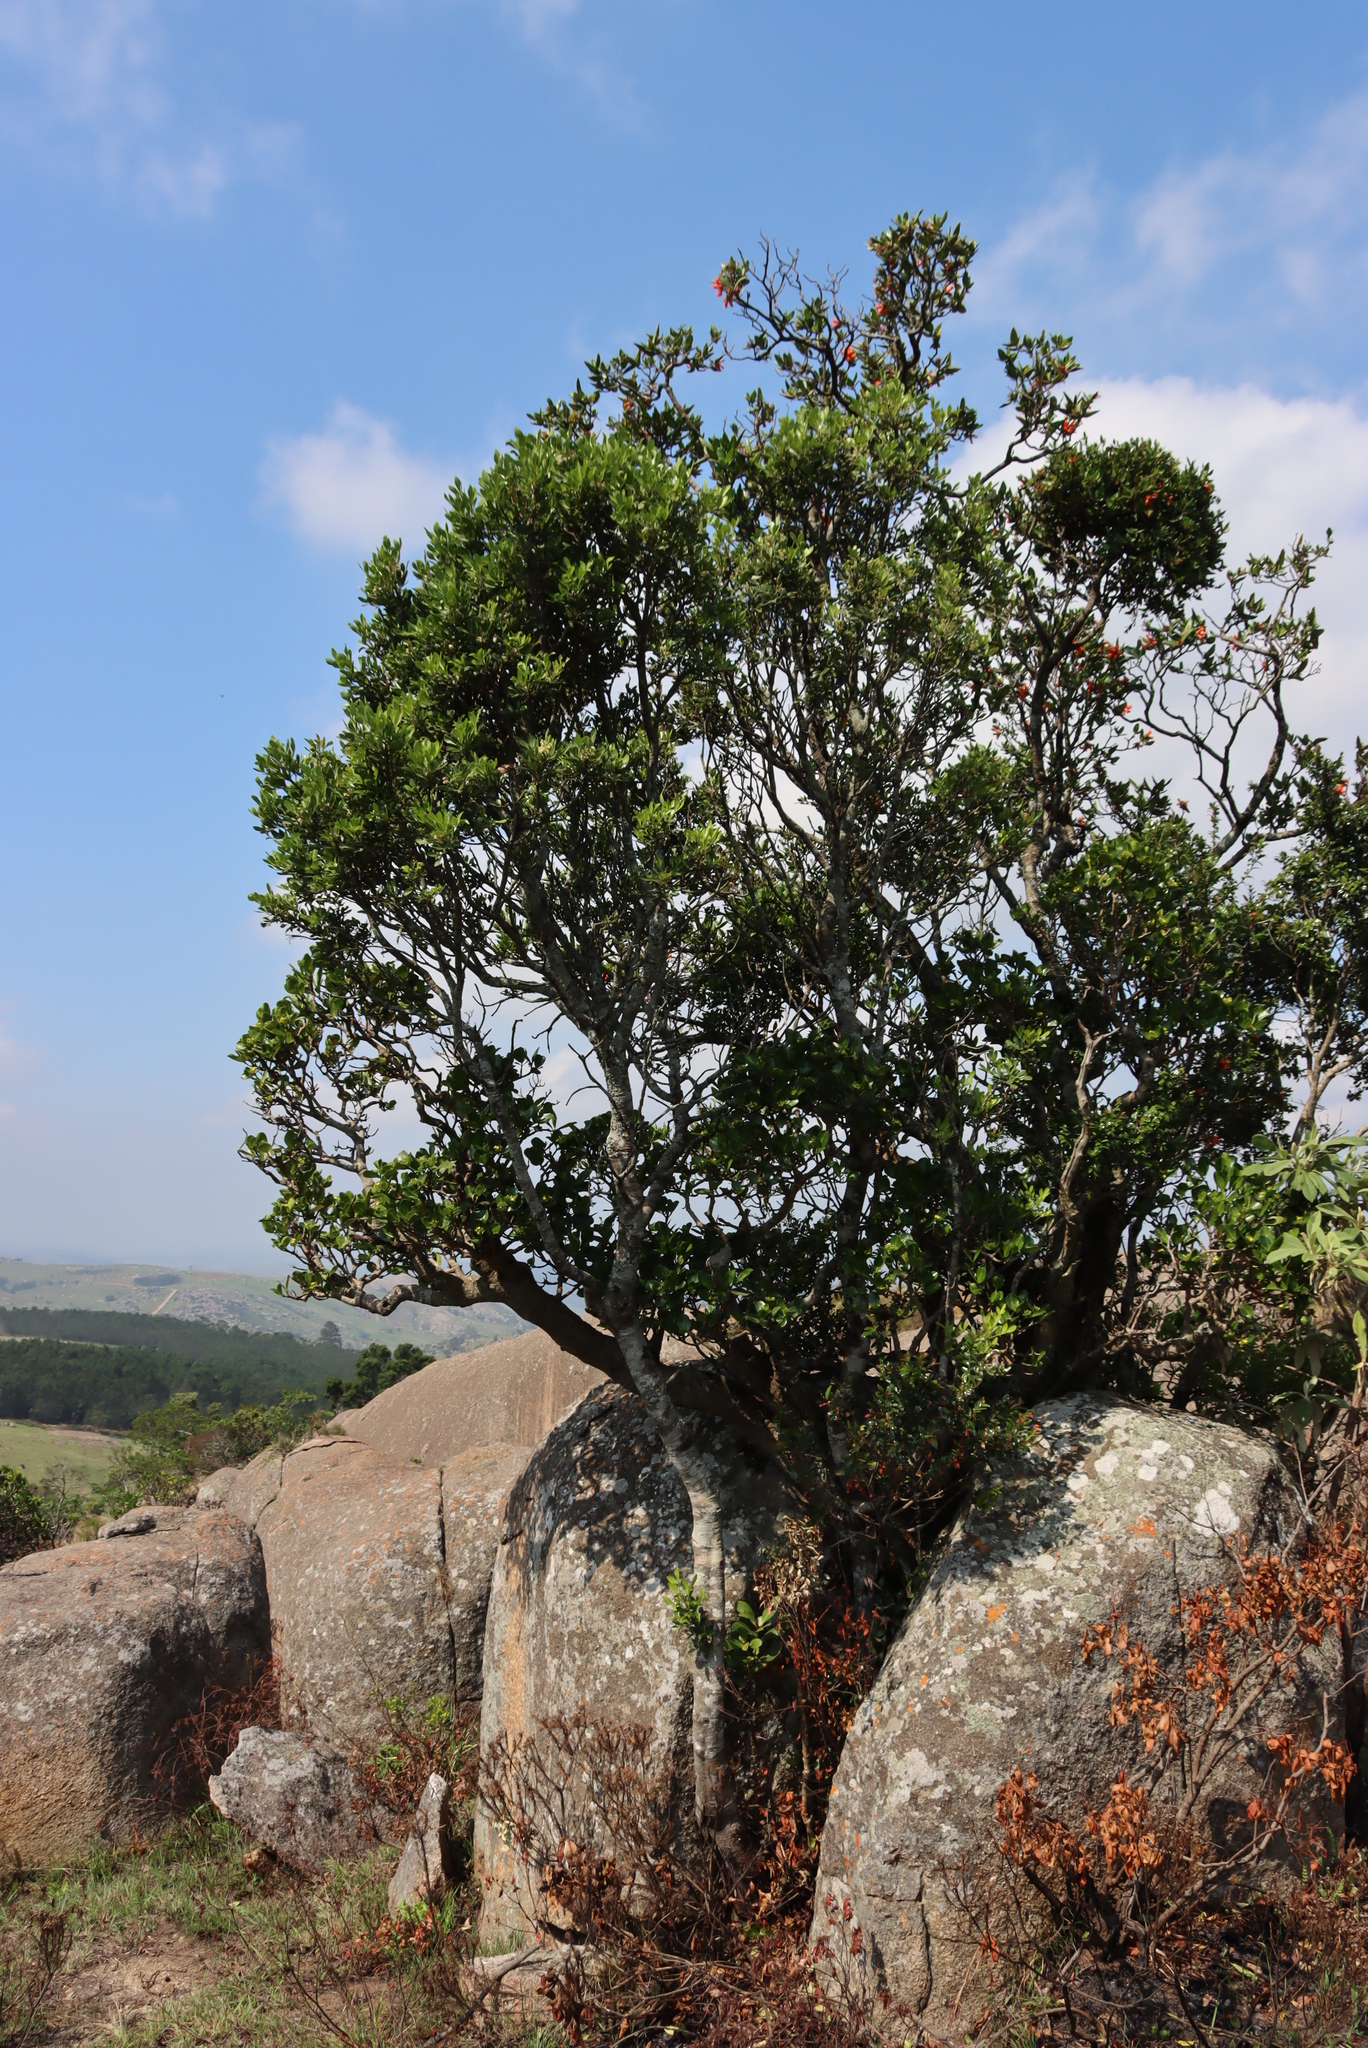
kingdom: Plantae
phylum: Tracheophyta
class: Magnoliopsida
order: Gentianales
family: Rubiaceae
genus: Psychotria
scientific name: Psychotria
